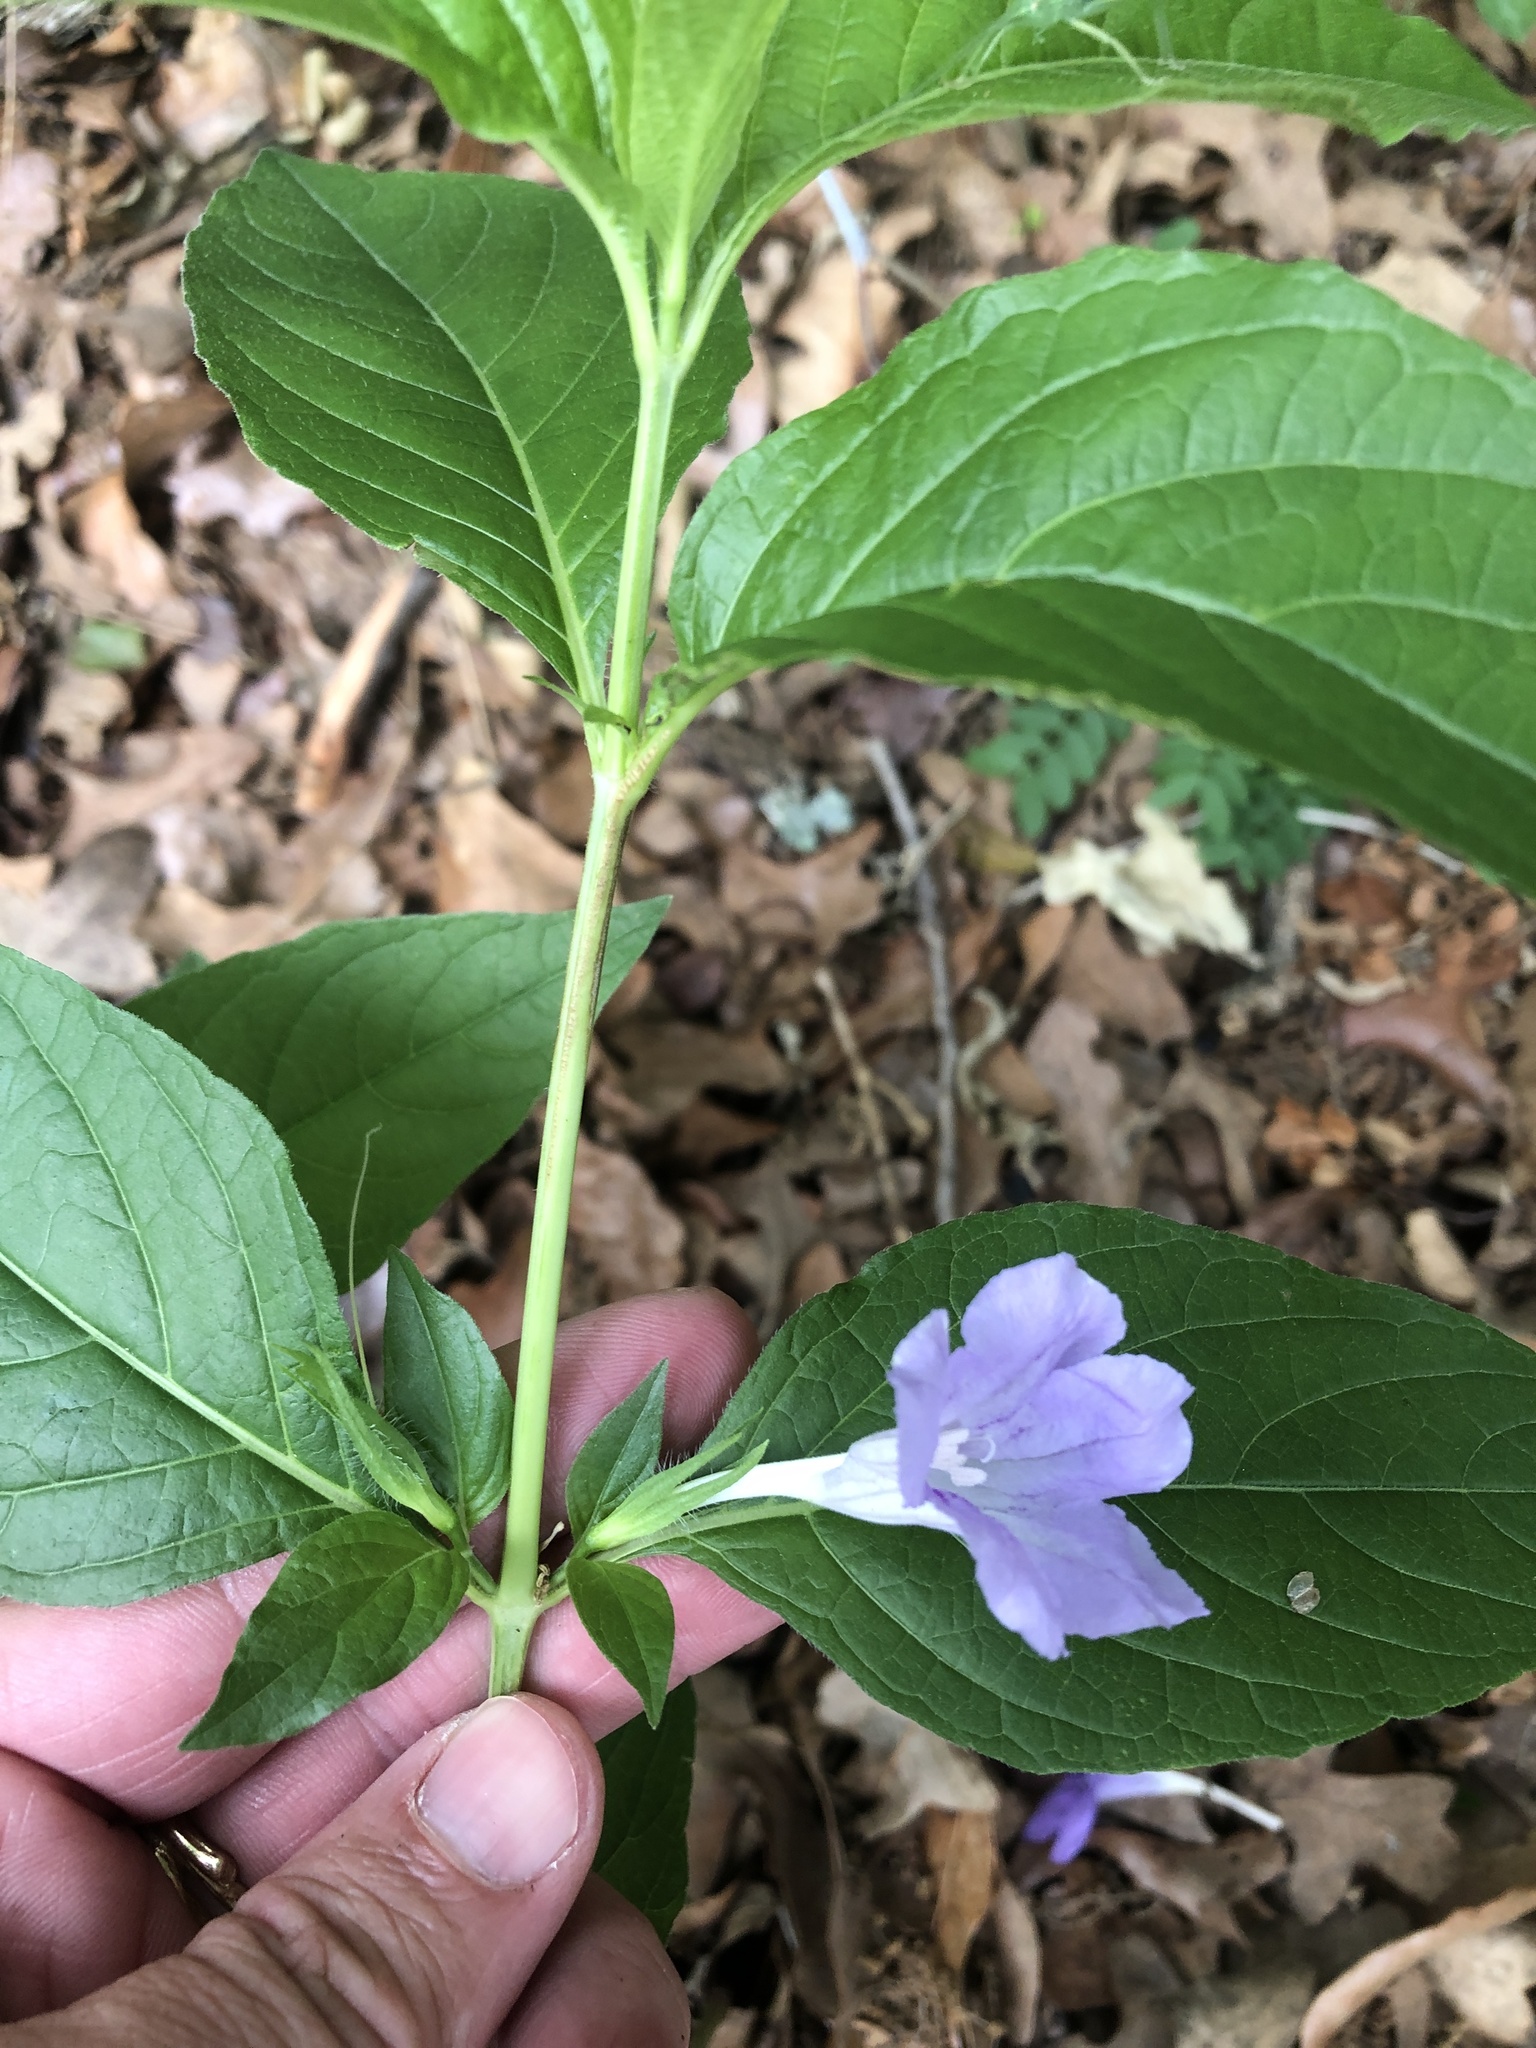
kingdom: Plantae
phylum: Tracheophyta
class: Magnoliopsida
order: Lamiales
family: Acanthaceae
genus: Ruellia
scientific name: Ruellia strepens
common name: Limestone wild petunia
